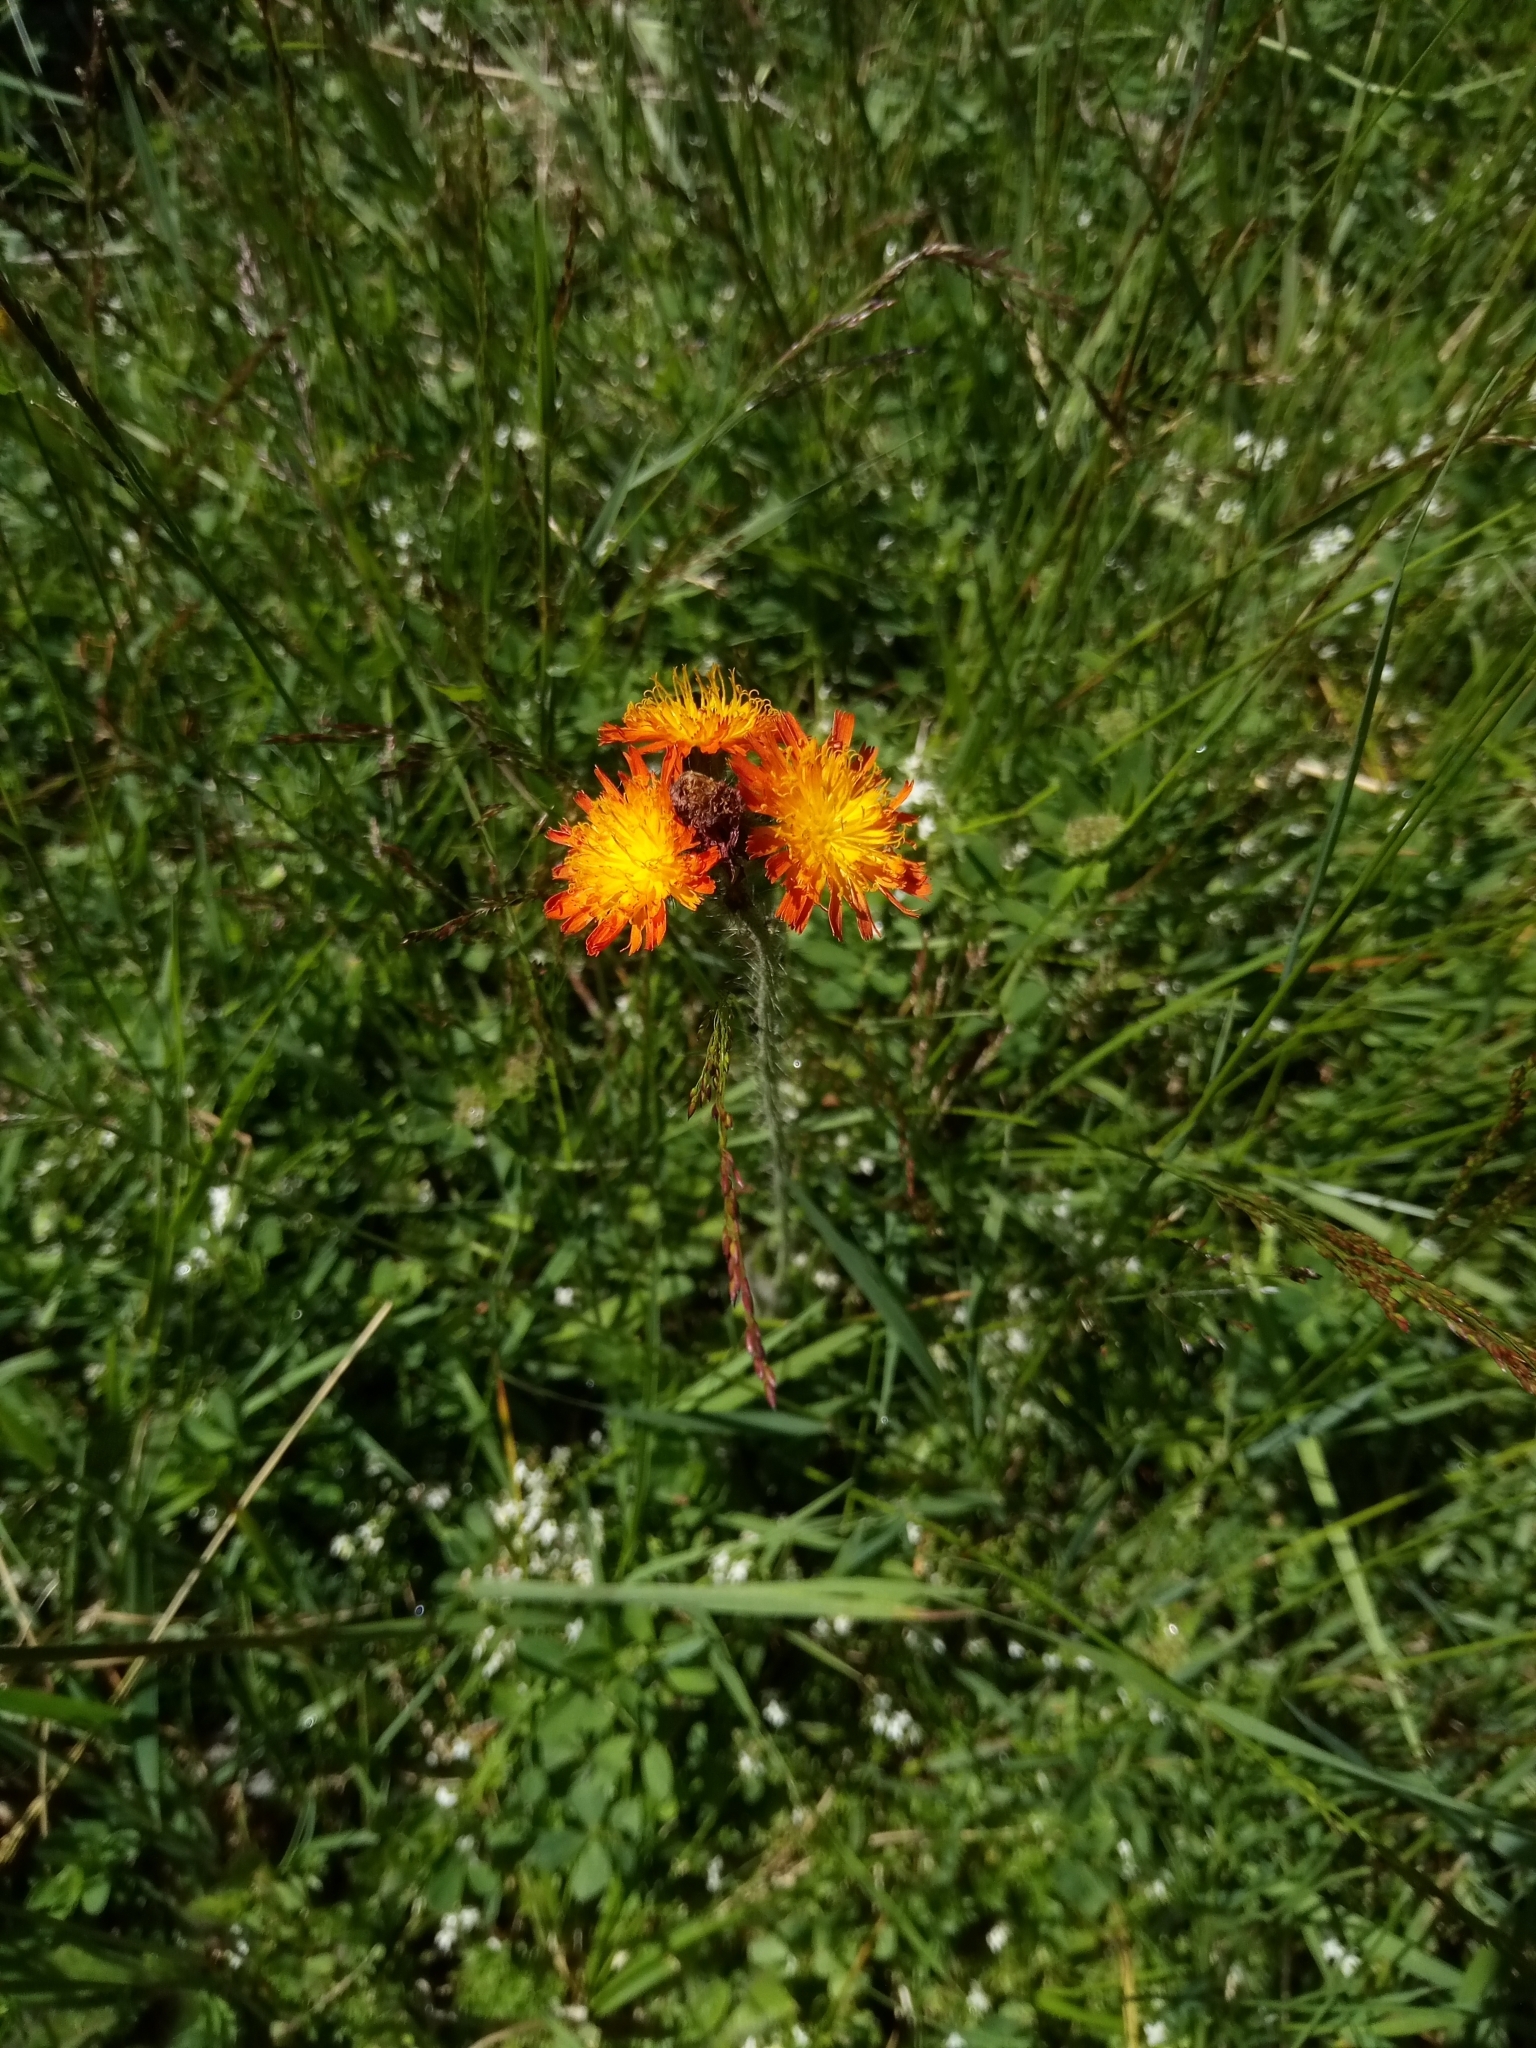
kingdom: Plantae
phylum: Tracheophyta
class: Magnoliopsida
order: Asterales
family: Asteraceae
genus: Pilosella
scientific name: Pilosella aurantiaca
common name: Fox-and-cubs
